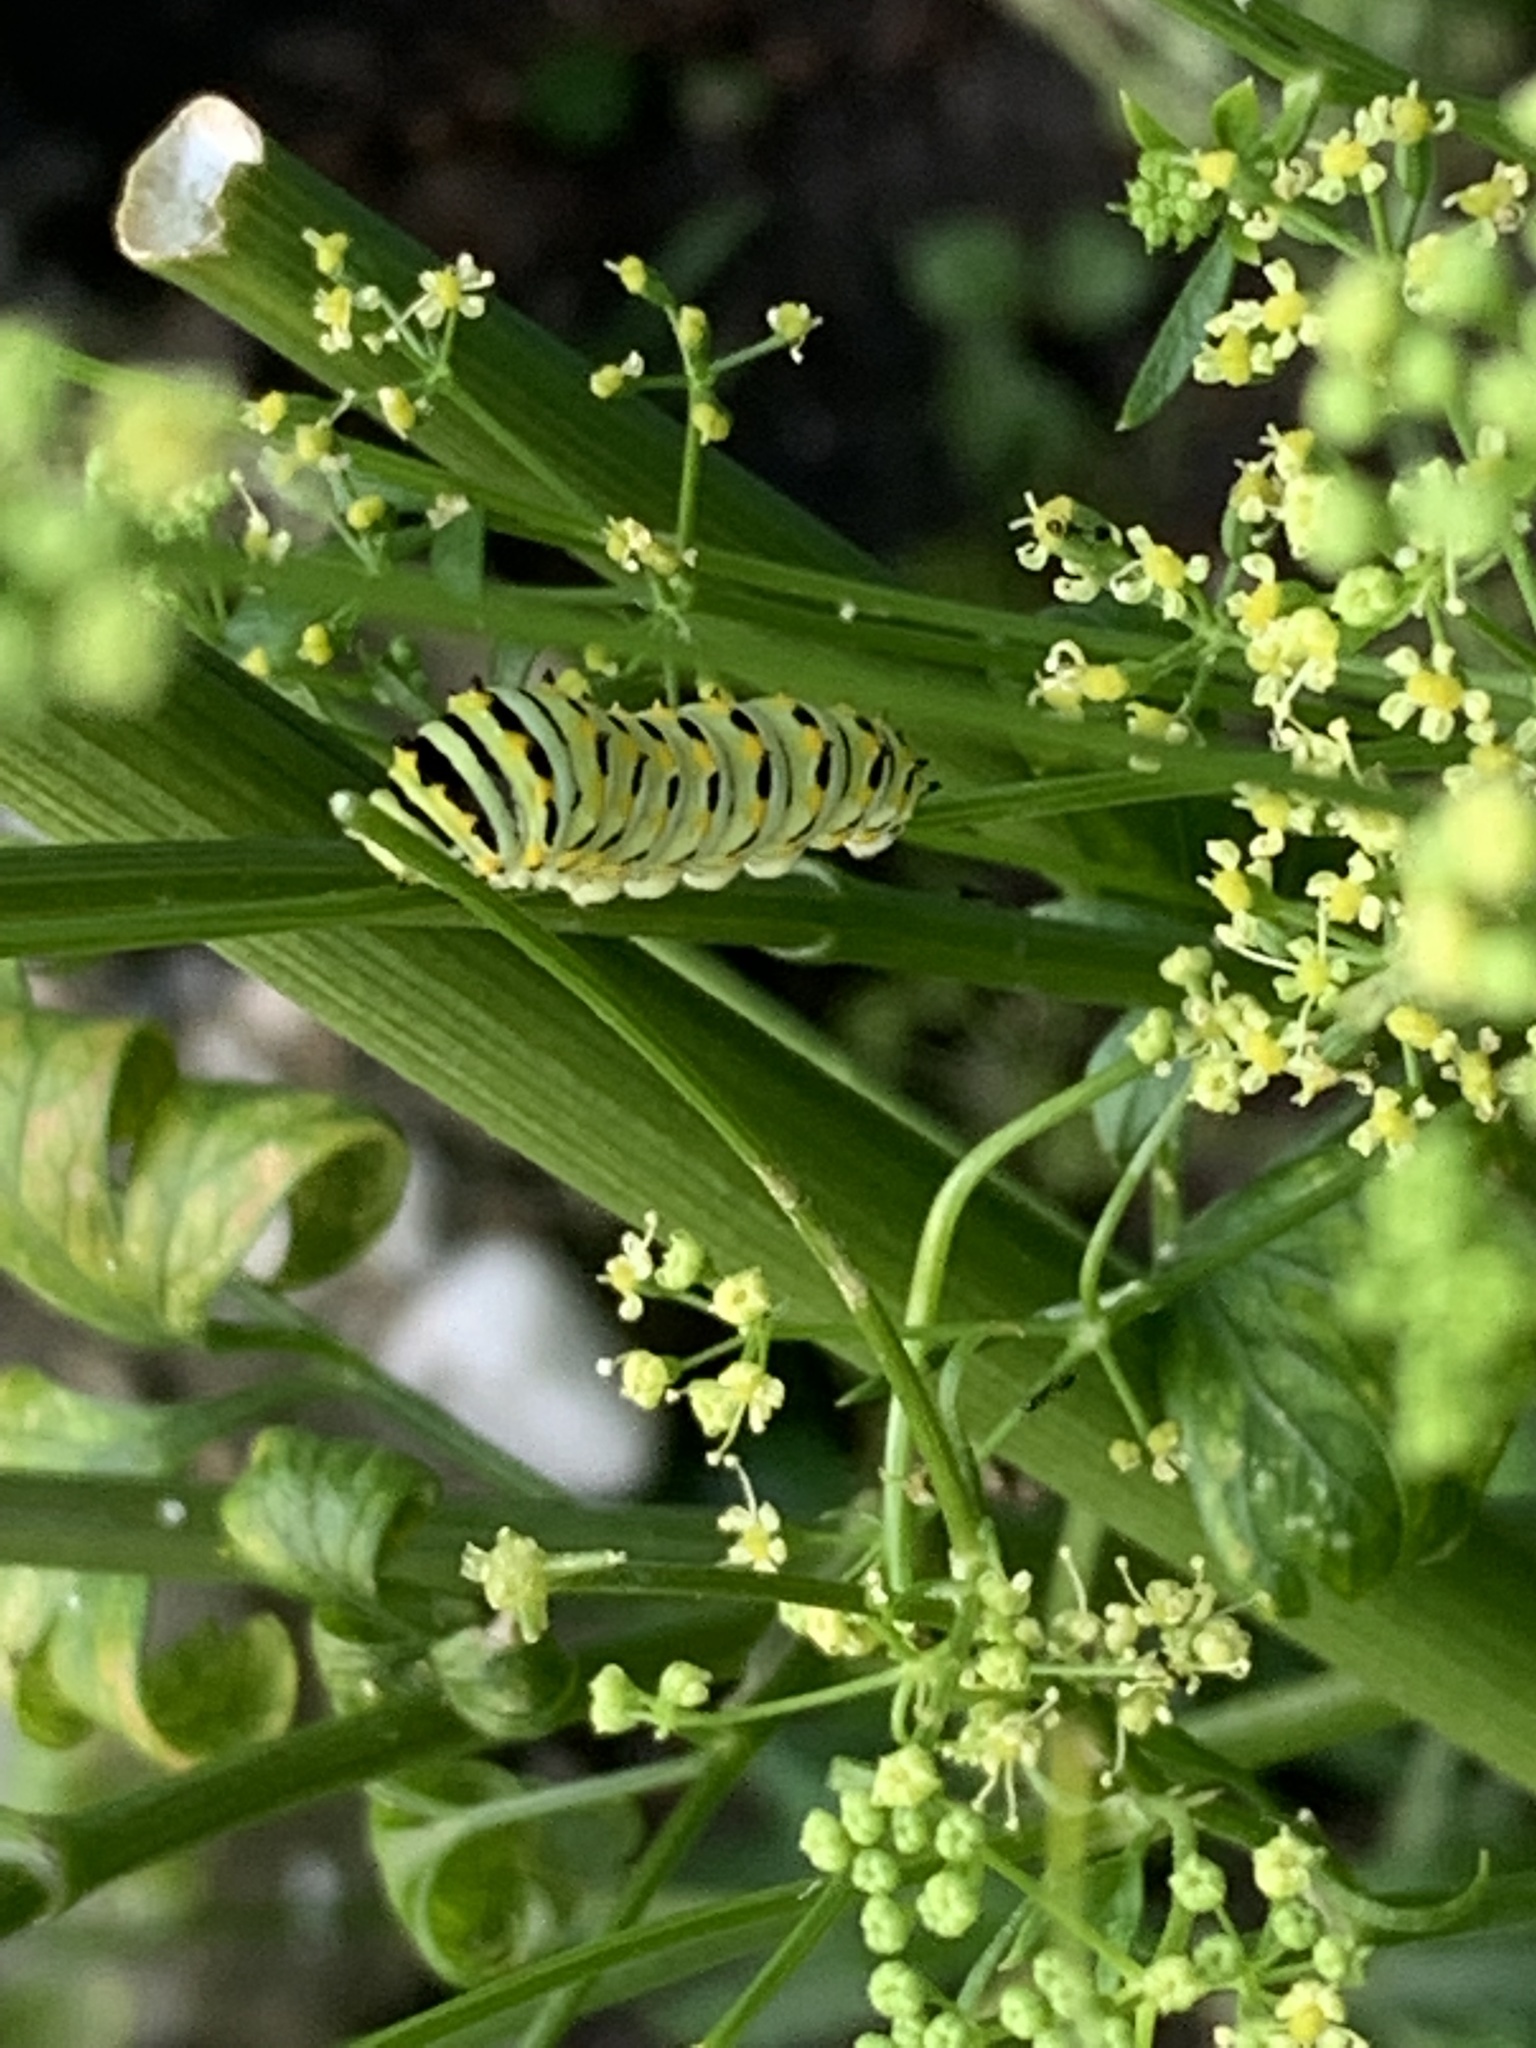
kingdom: Animalia
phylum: Arthropoda
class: Insecta
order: Lepidoptera
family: Papilionidae
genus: Papilio
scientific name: Papilio polyxenes
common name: Black swallowtail
